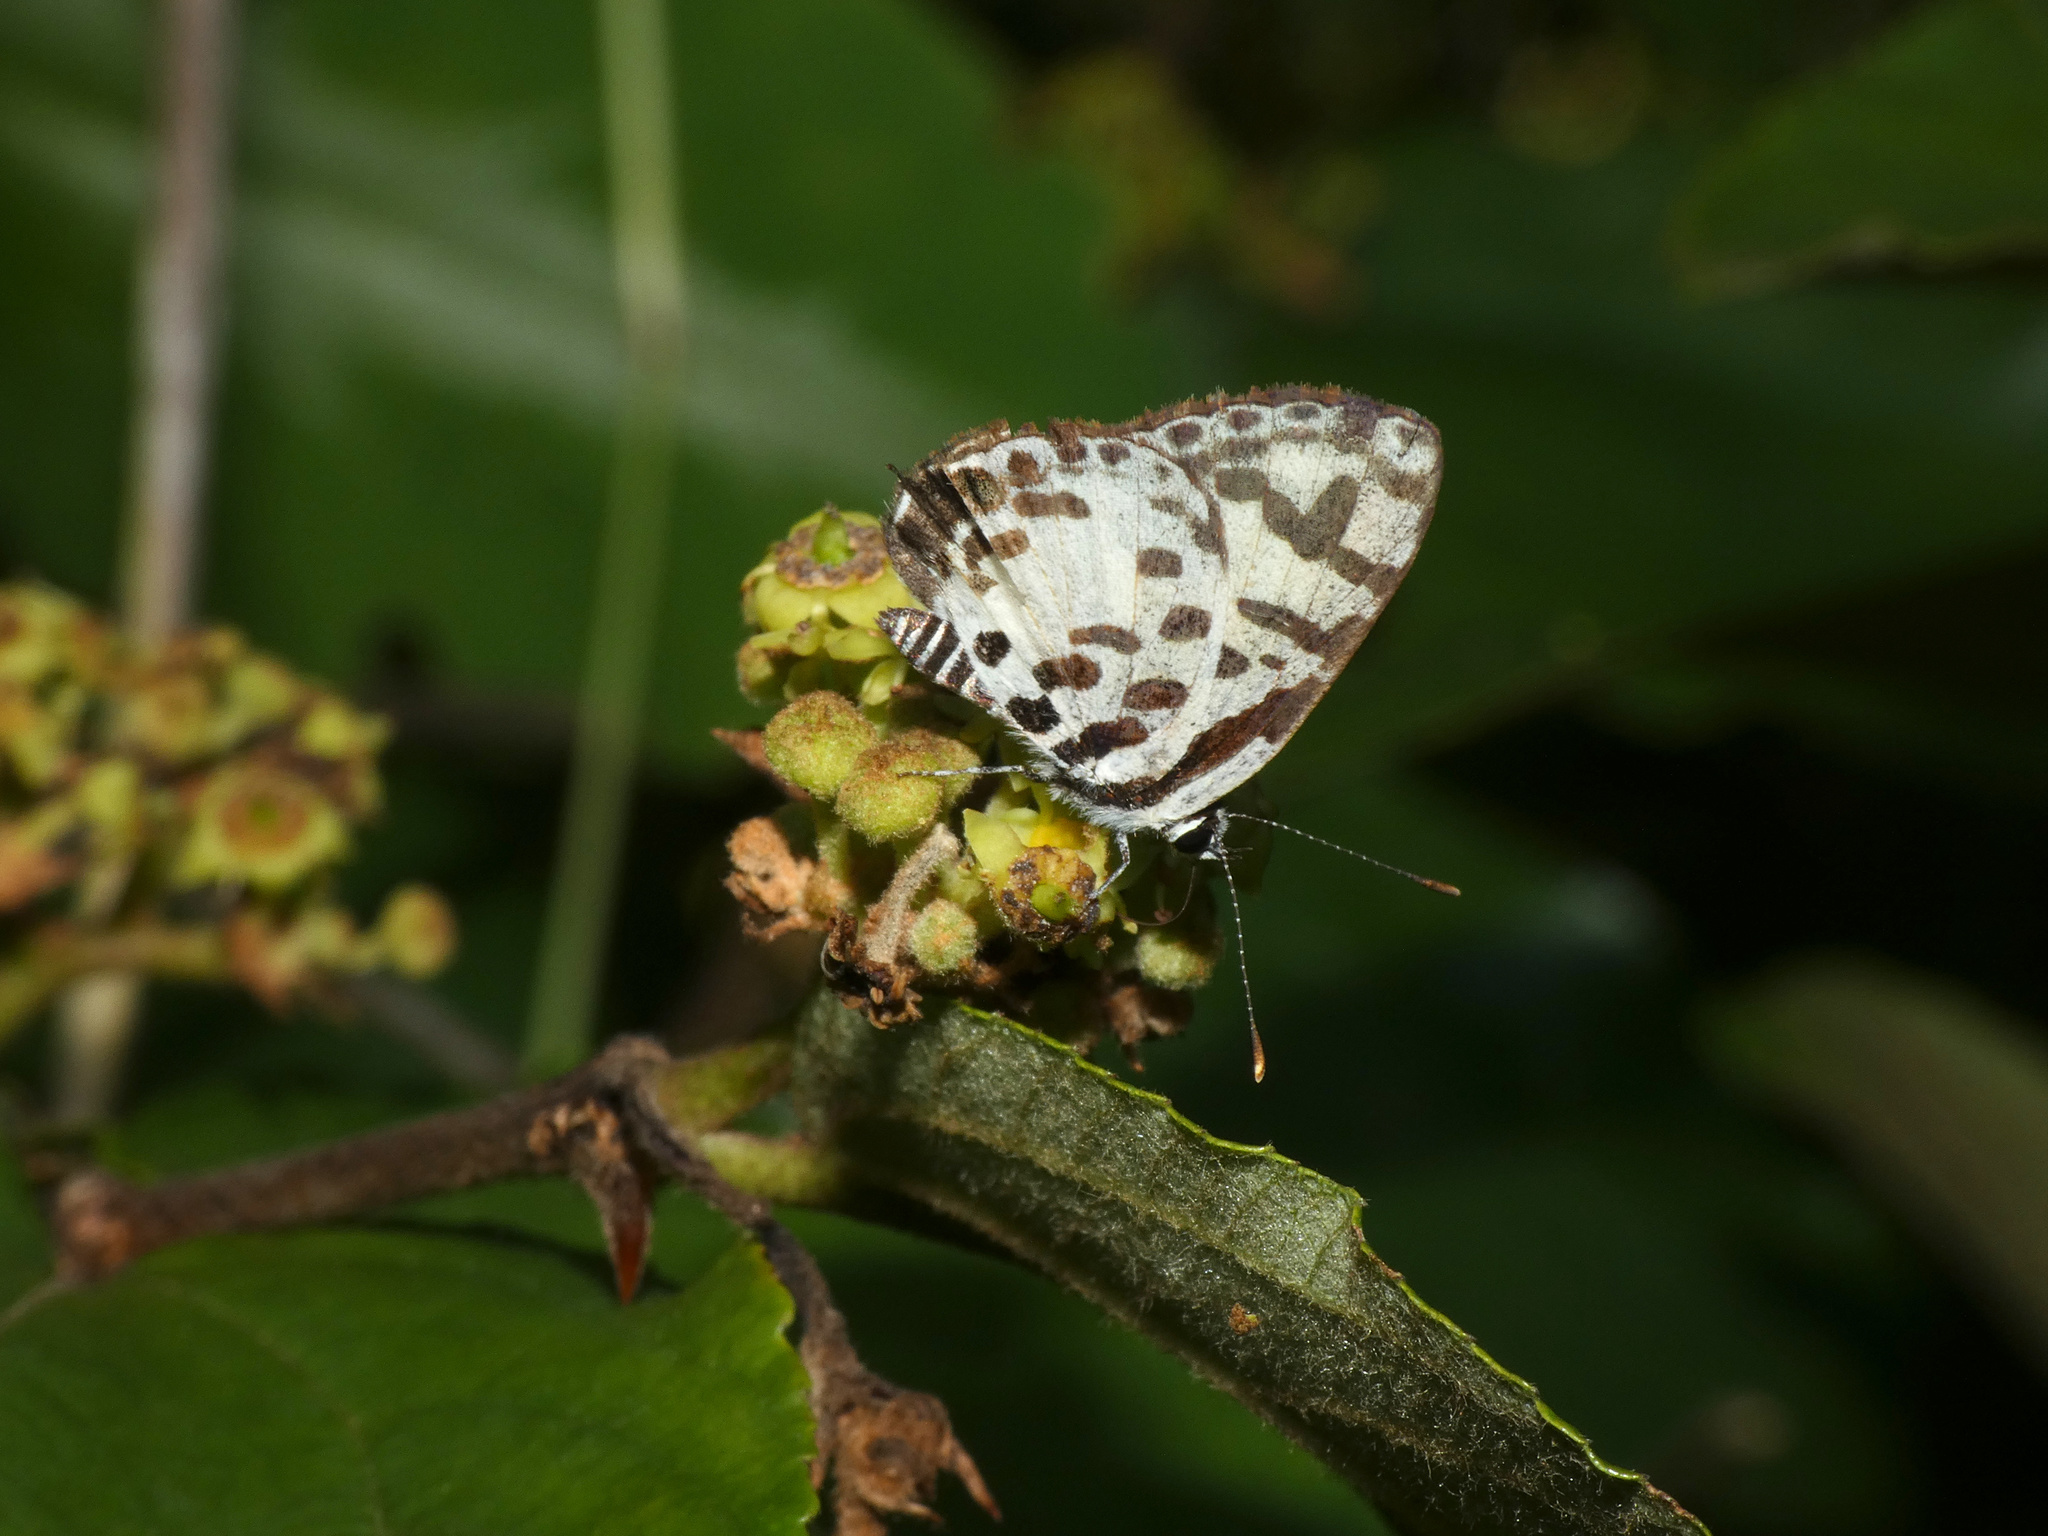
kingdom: Animalia
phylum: Arthropoda
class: Insecta
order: Lepidoptera
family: Lycaenidae
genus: Castalius
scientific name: Castalius calice
